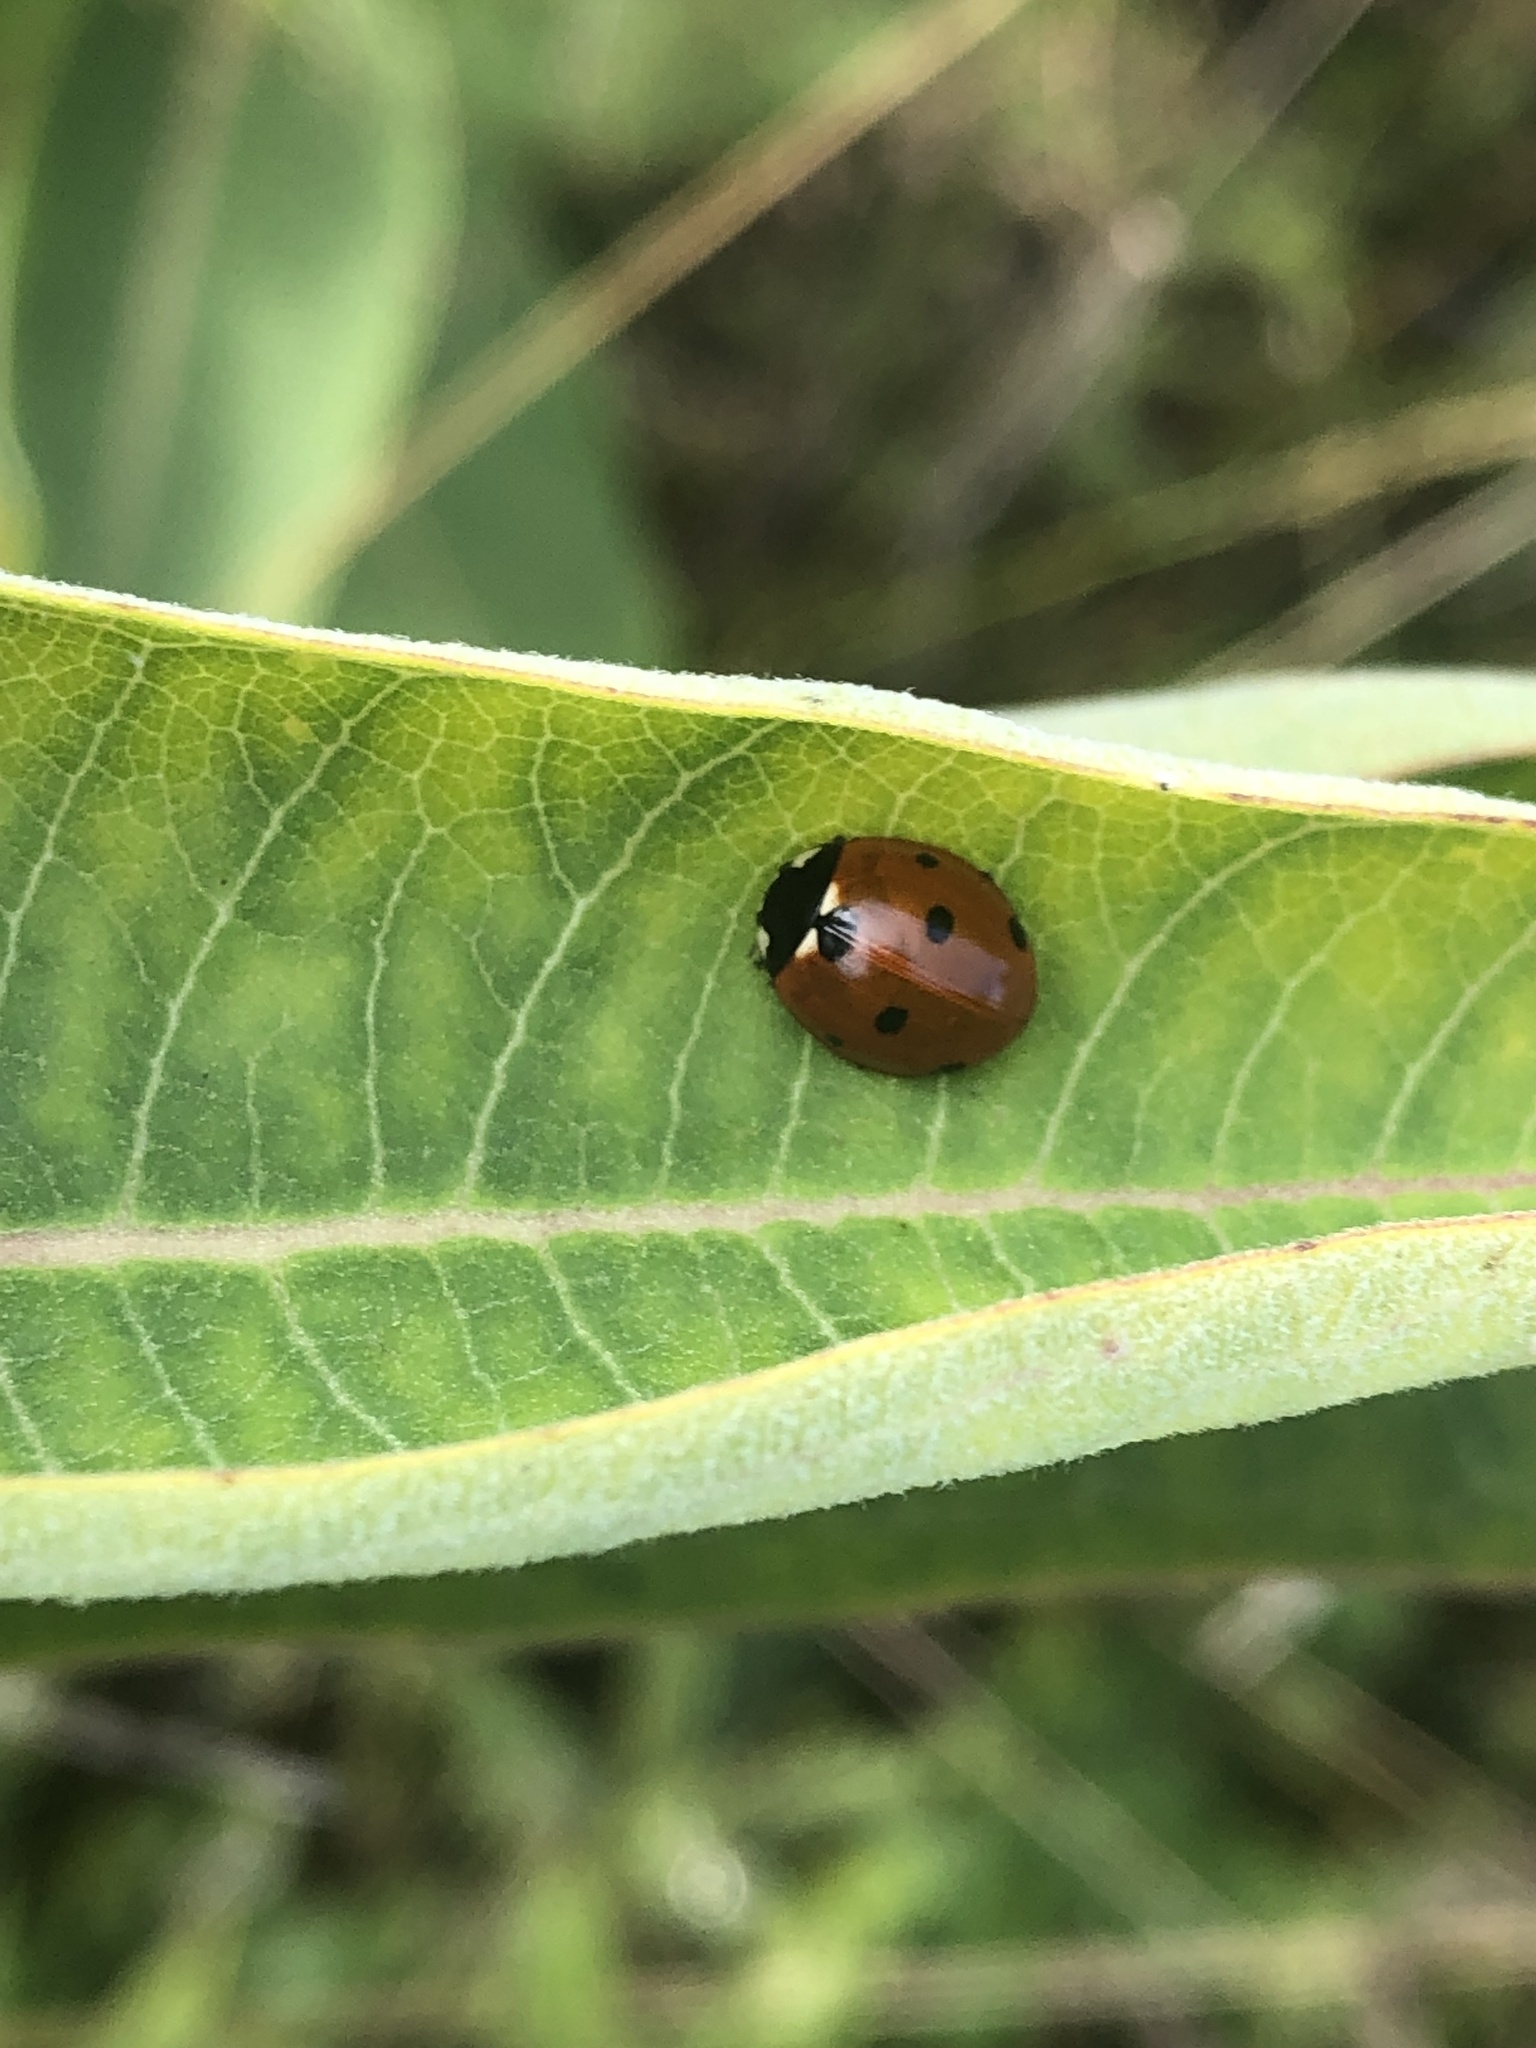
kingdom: Animalia
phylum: Arthropoda
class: Insecta
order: Coleoptera
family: Coccinellidae
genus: Coccinella
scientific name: Coccinella septempunctata
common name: Sevenspotted lady beetle
